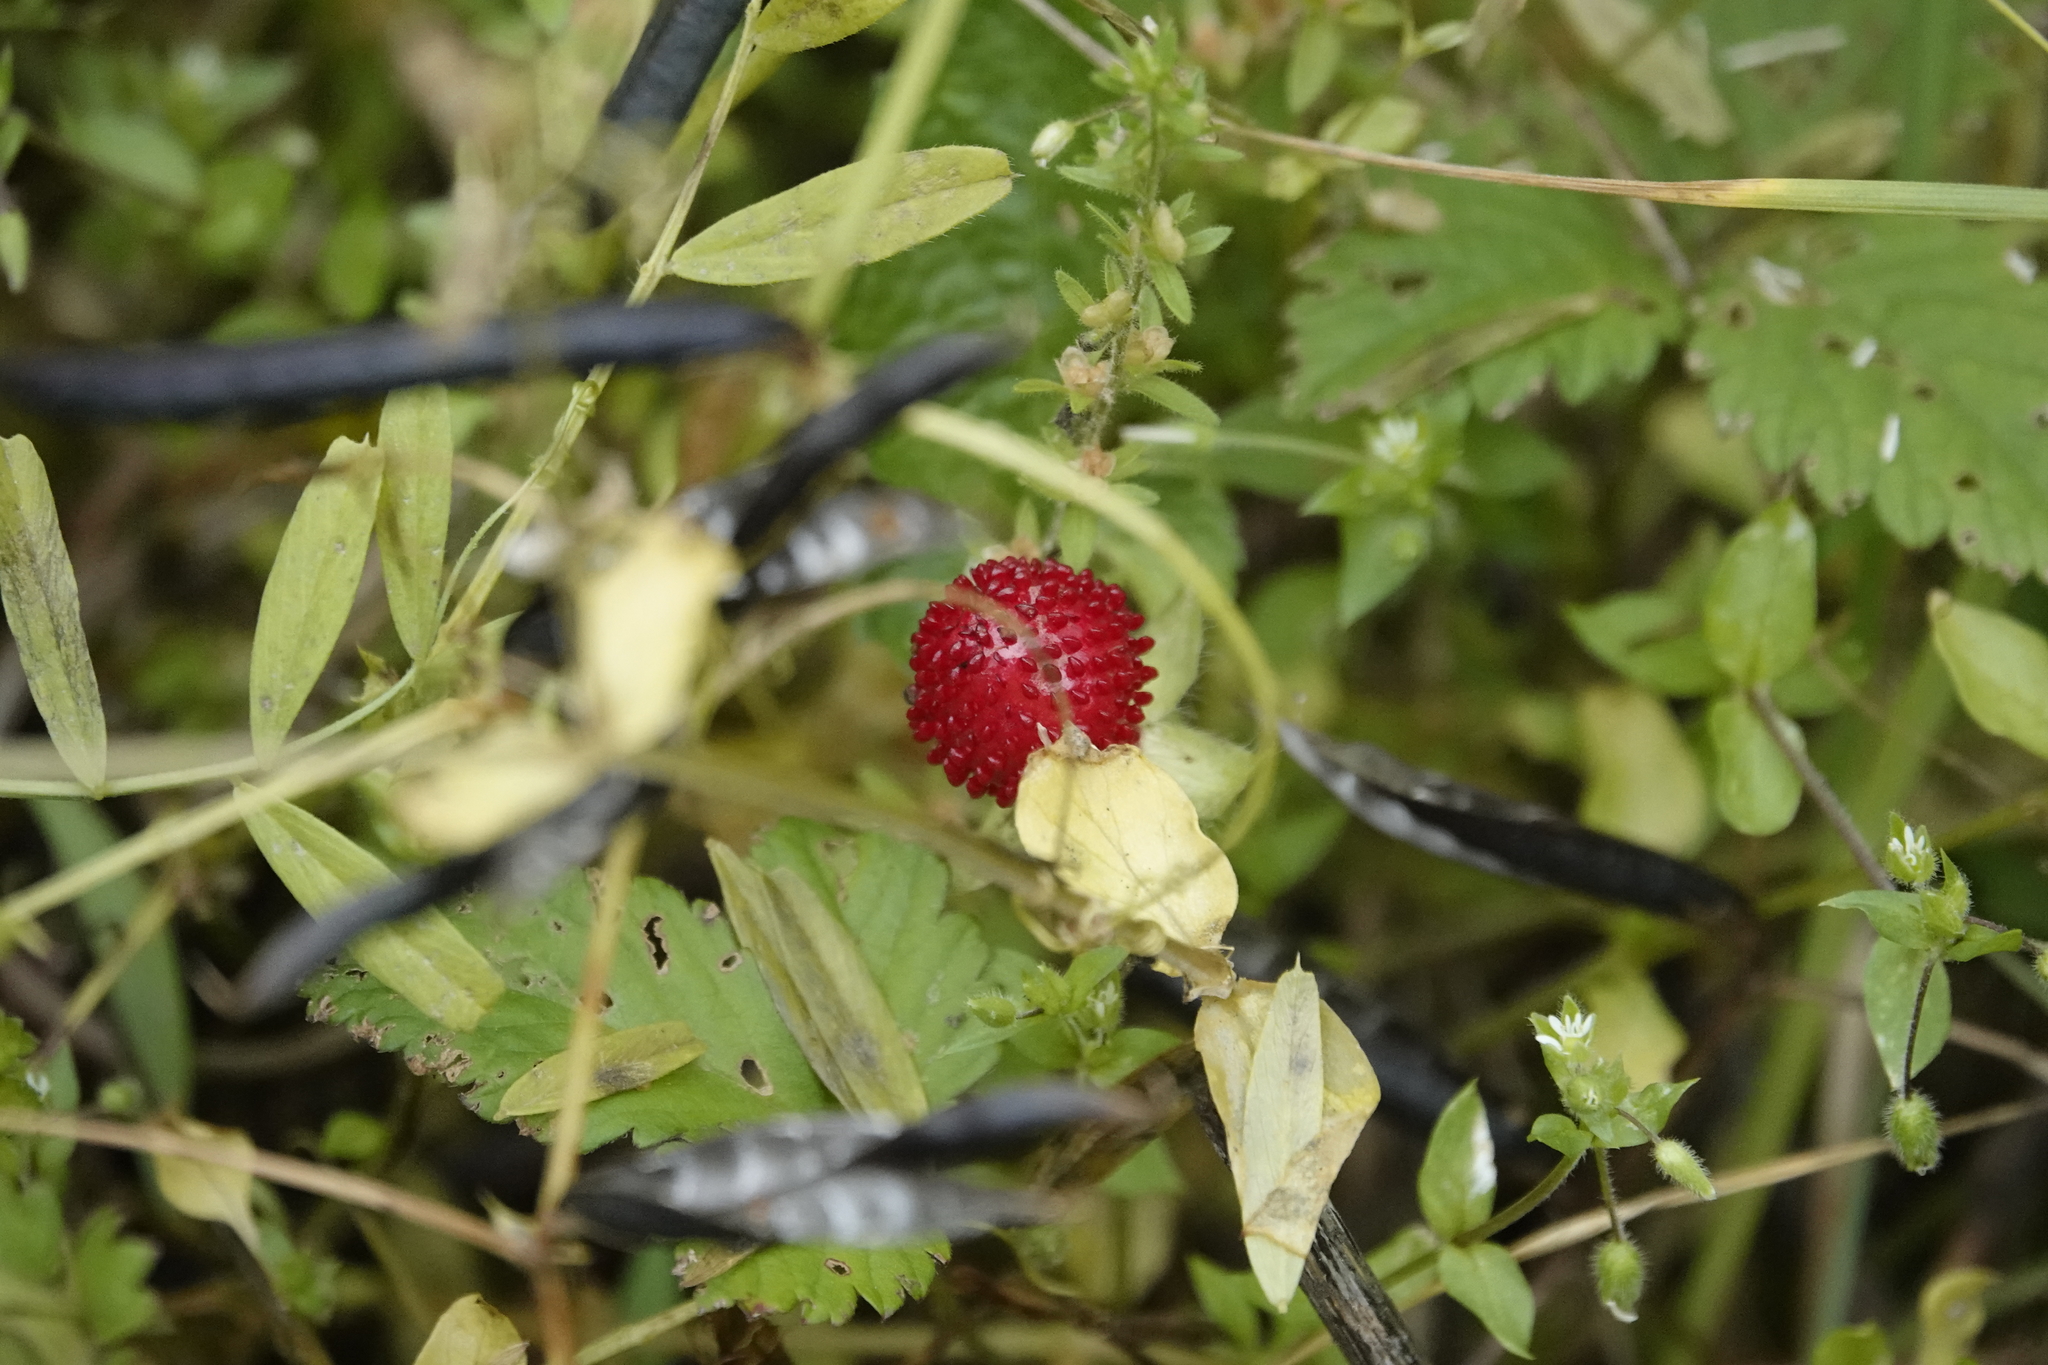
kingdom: Plantae
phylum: Tracheophyta
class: Magnoliopsida
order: Rosales
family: Rosaceae
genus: Potentilla
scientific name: Potentilla indica
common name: Yellow-flowered strawberry
